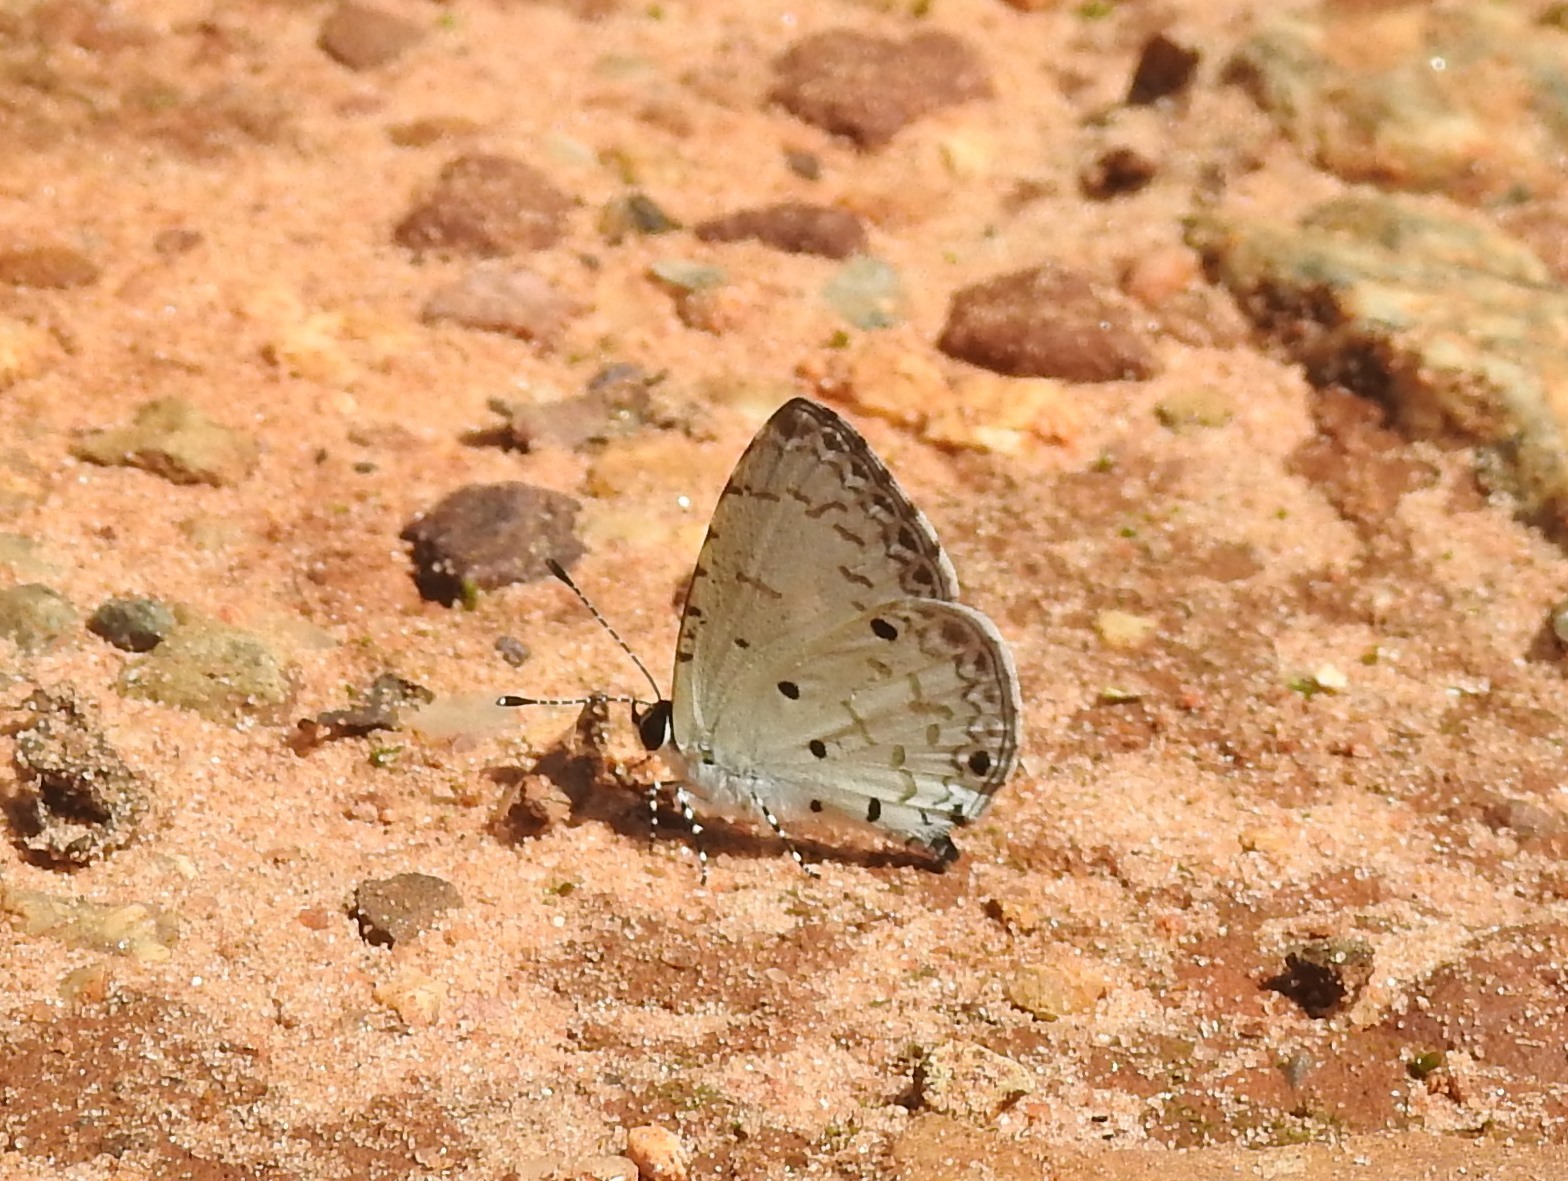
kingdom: Animalia
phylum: Arthropoda
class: Insecta
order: Lepidoptera
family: Lycaenidae
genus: Megisba
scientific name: Megisba malaya
